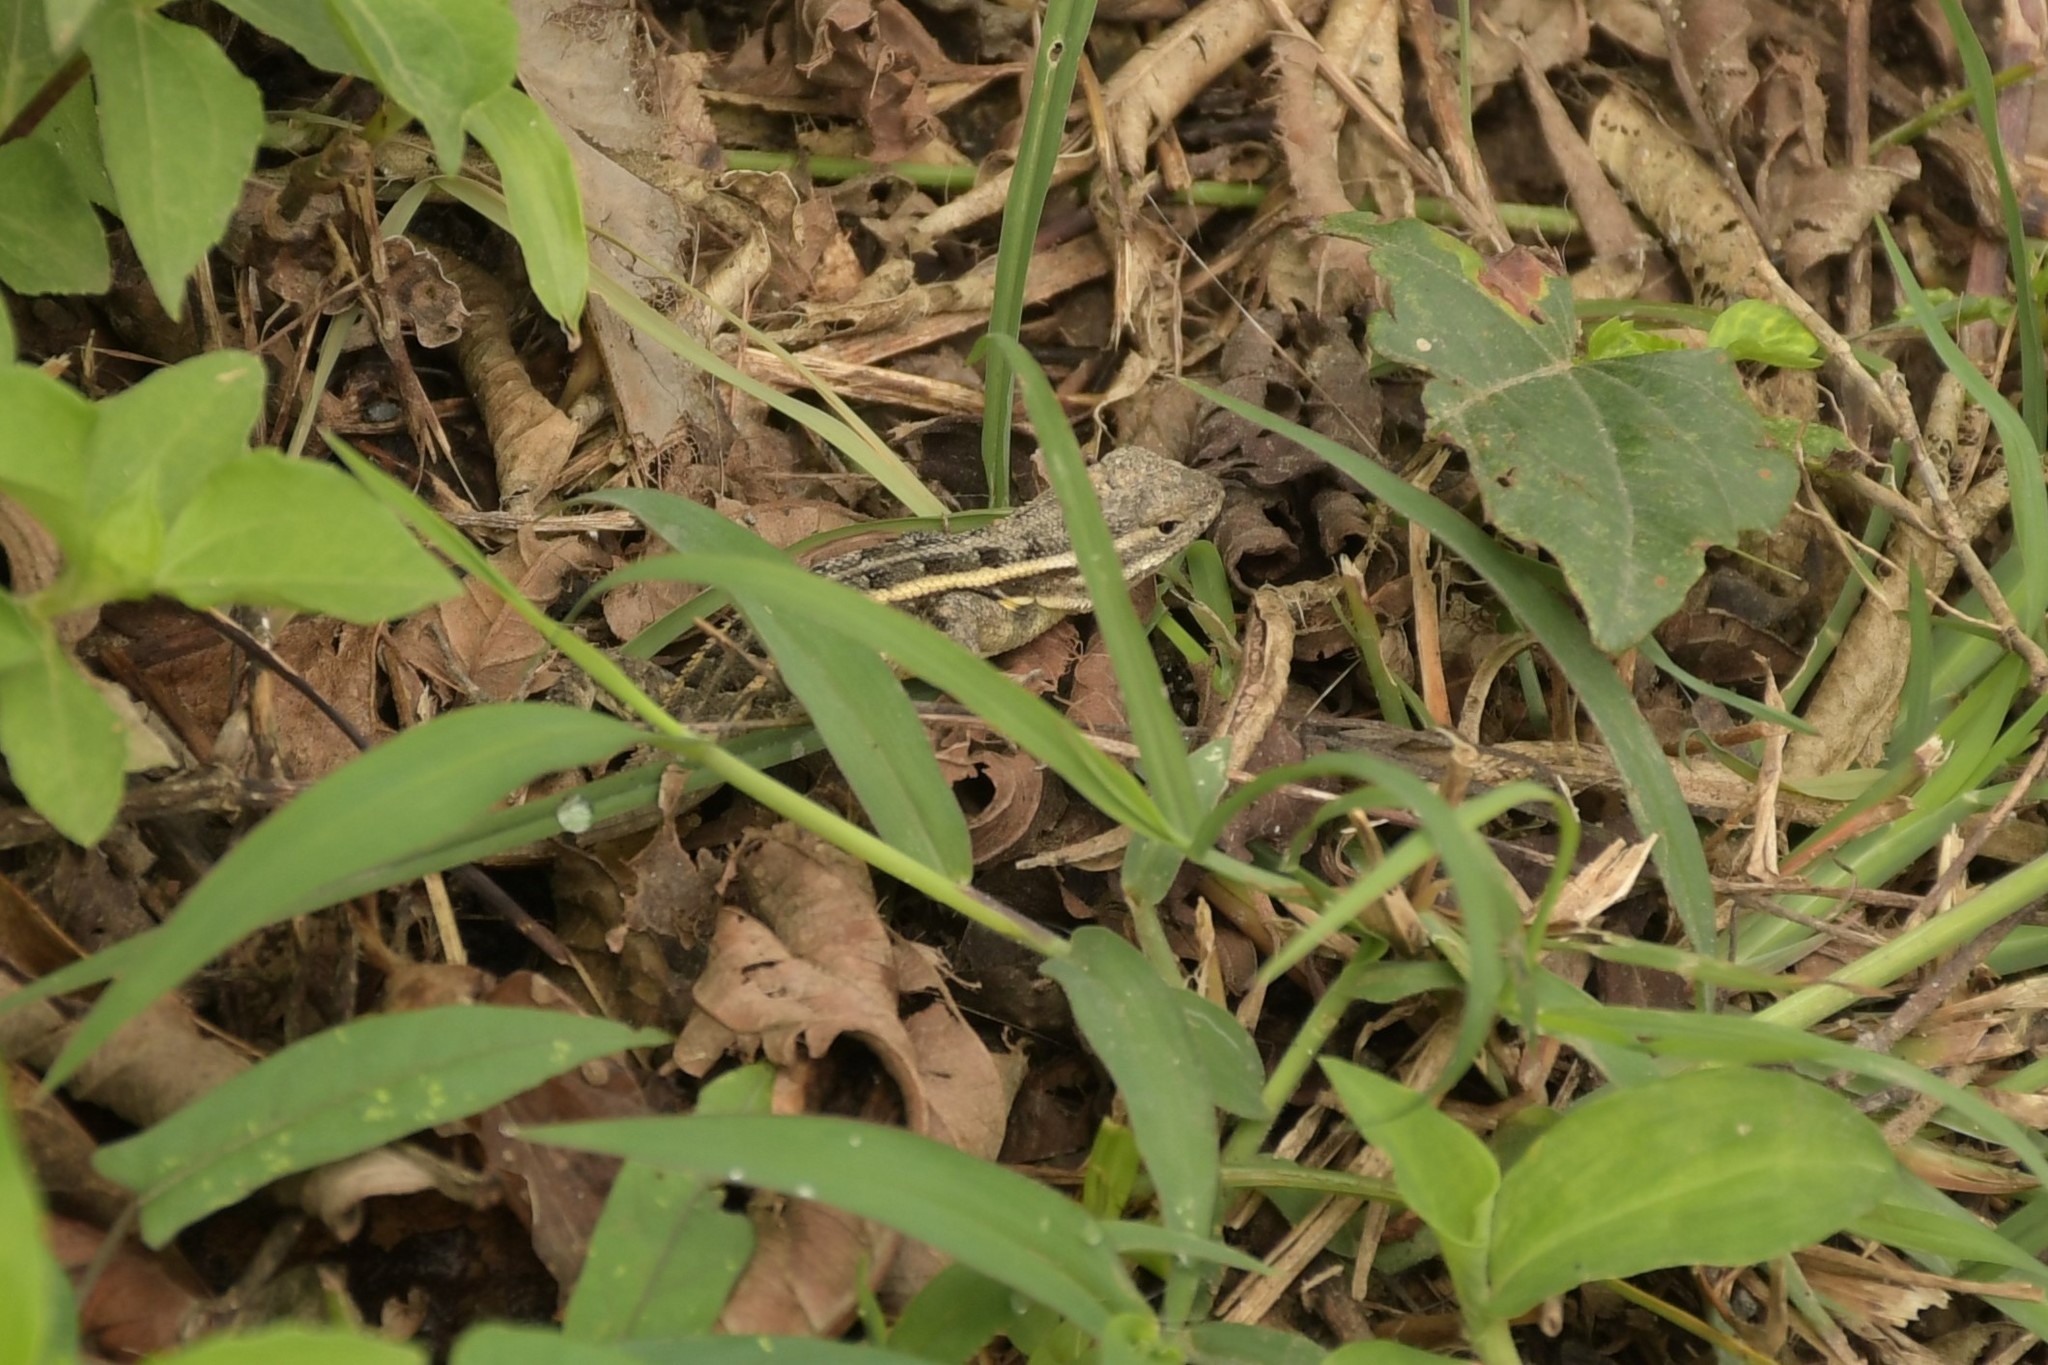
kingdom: Animalia
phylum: Chordata
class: Squamata
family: Phrynosomatidae
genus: Sceloporus
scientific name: Sceloporus variabilis
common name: Rosebelly lizard
